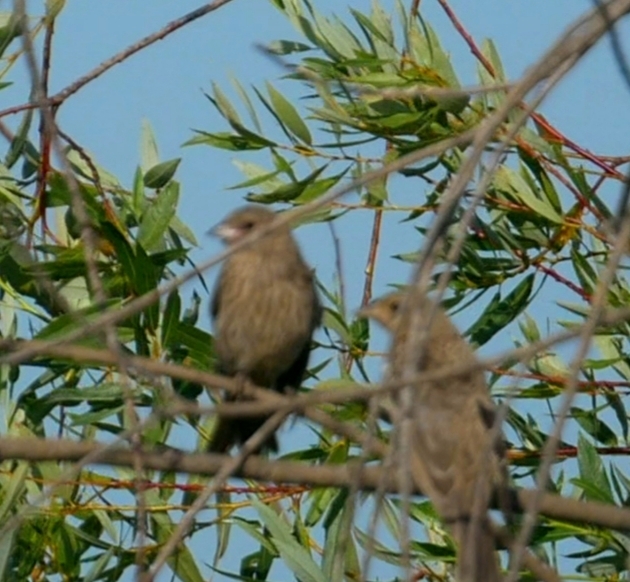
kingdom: Animalia
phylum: Chordata
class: Aves
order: Passeriformes
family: Icteridae
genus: Molothrus
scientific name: Molothrus ater
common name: Brown-headed cowbird
